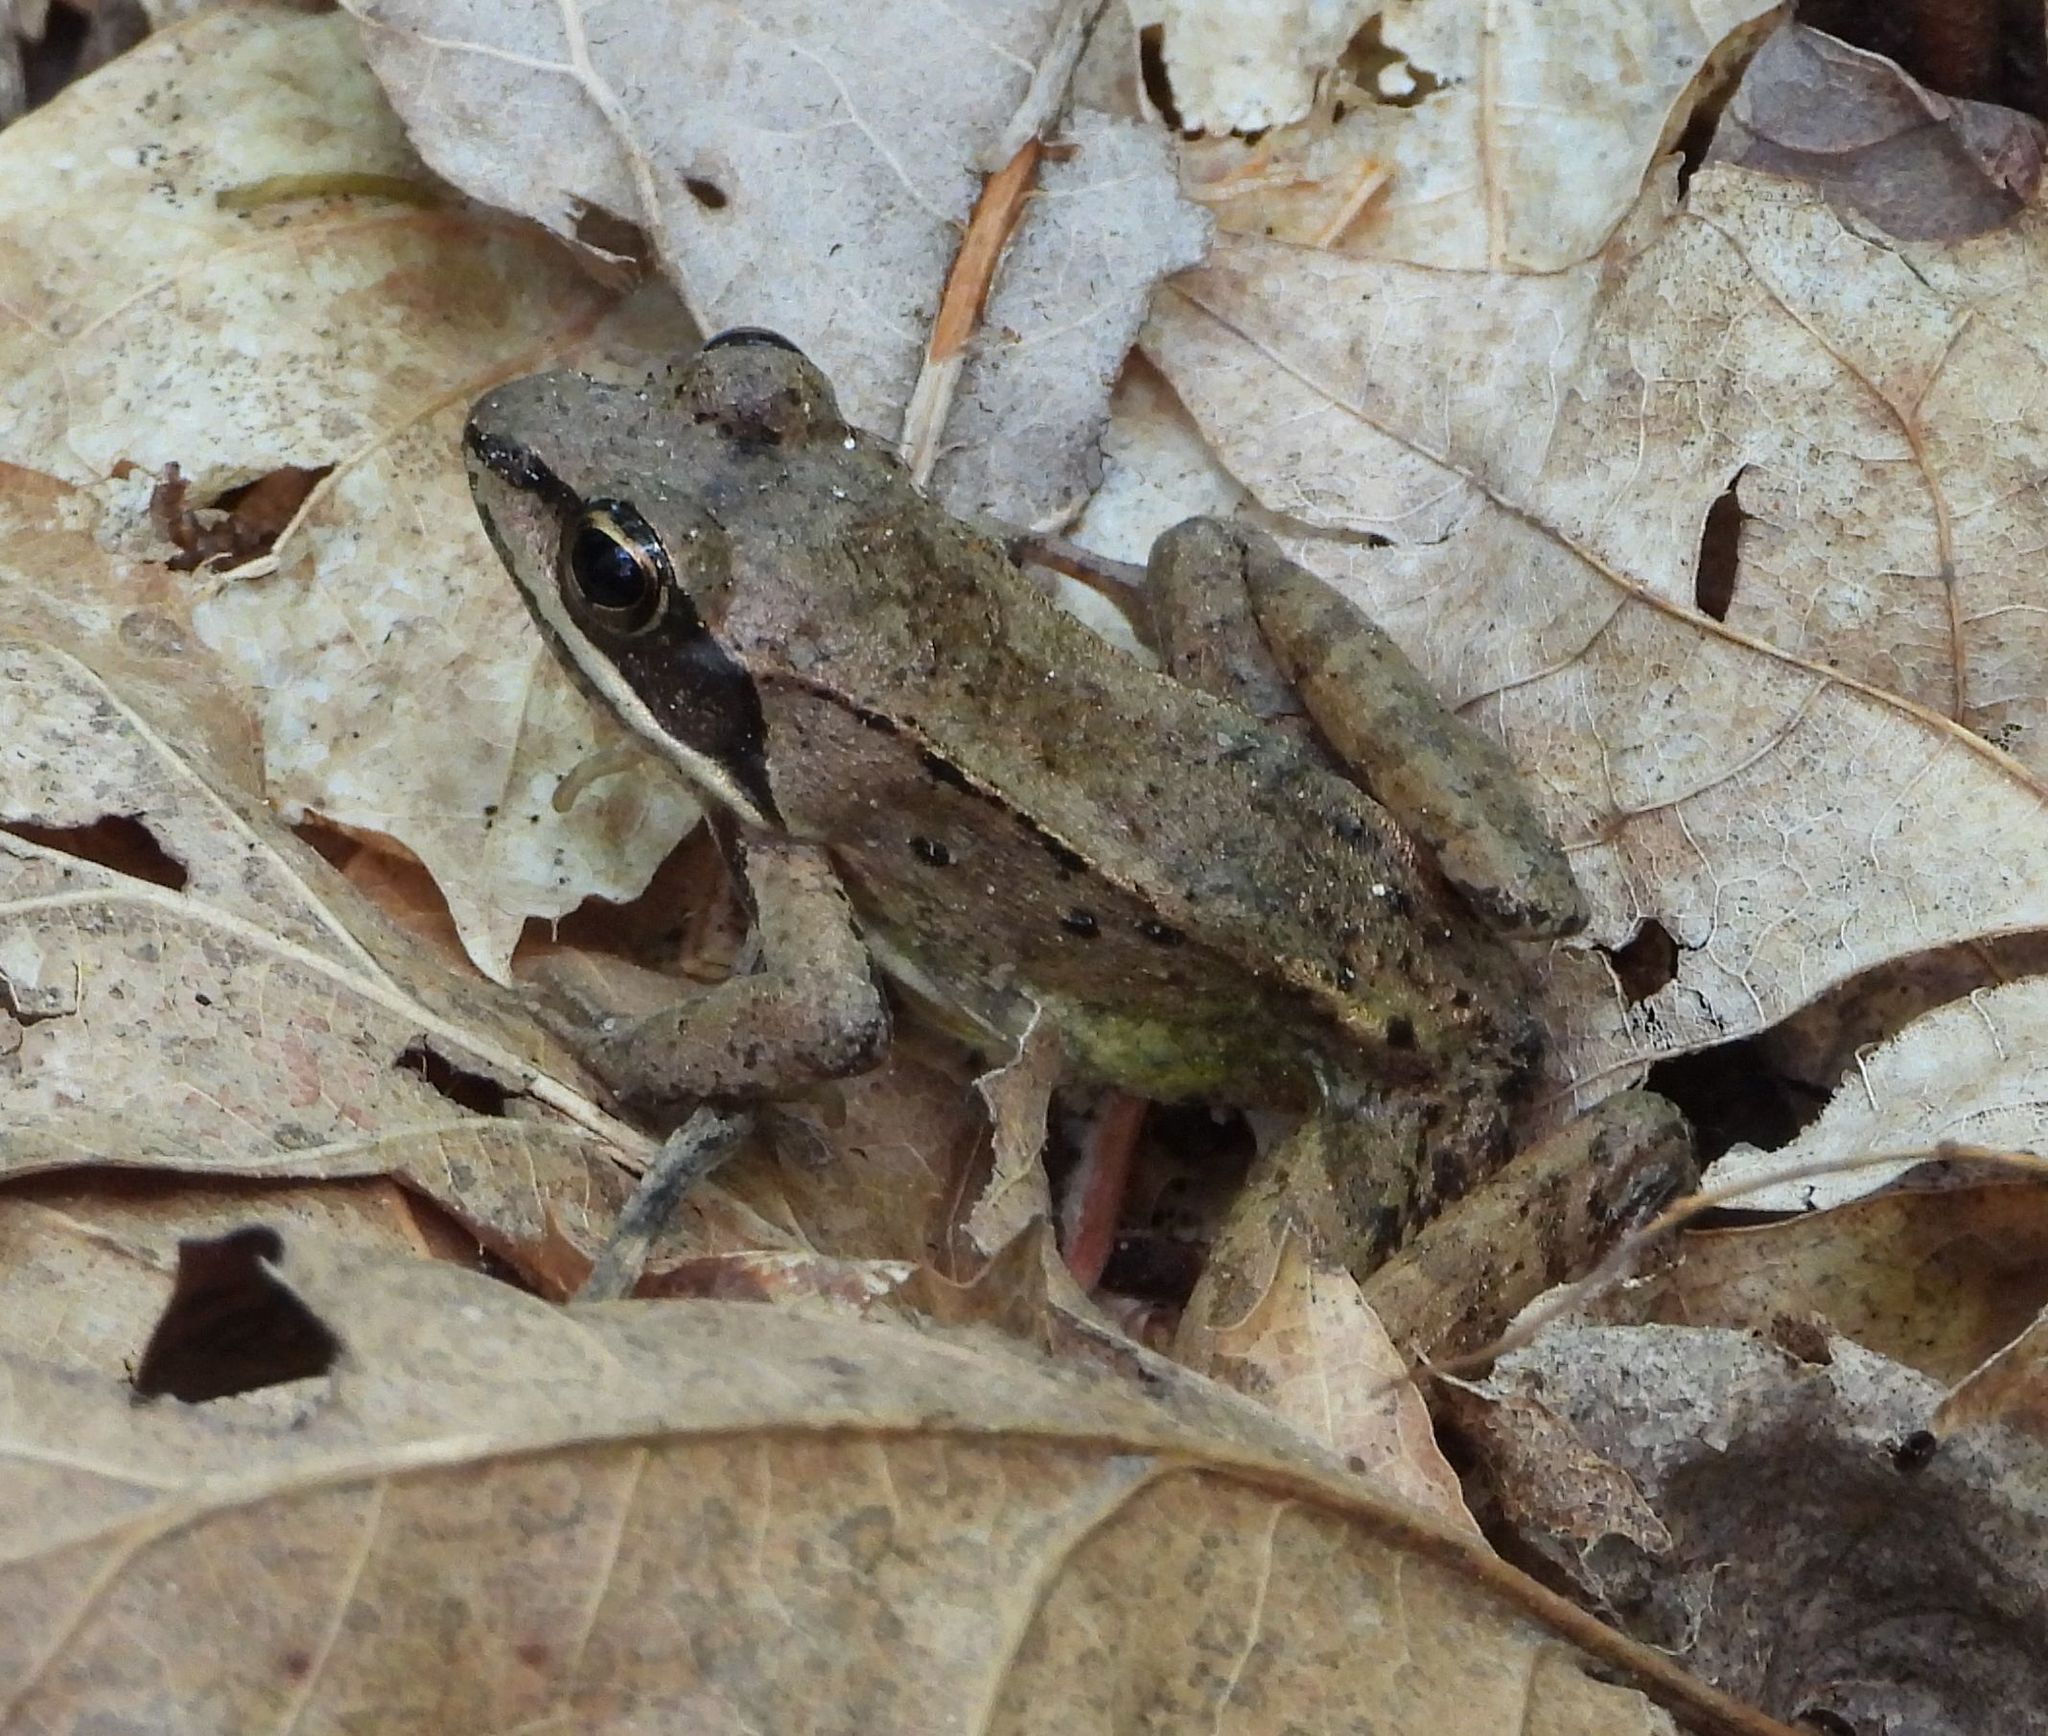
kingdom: Animalia
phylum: Chordata
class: Amphibia
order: Anura
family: Ranidae
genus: Lithobates
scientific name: Lithobates sylvaticus
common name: Wood frog
